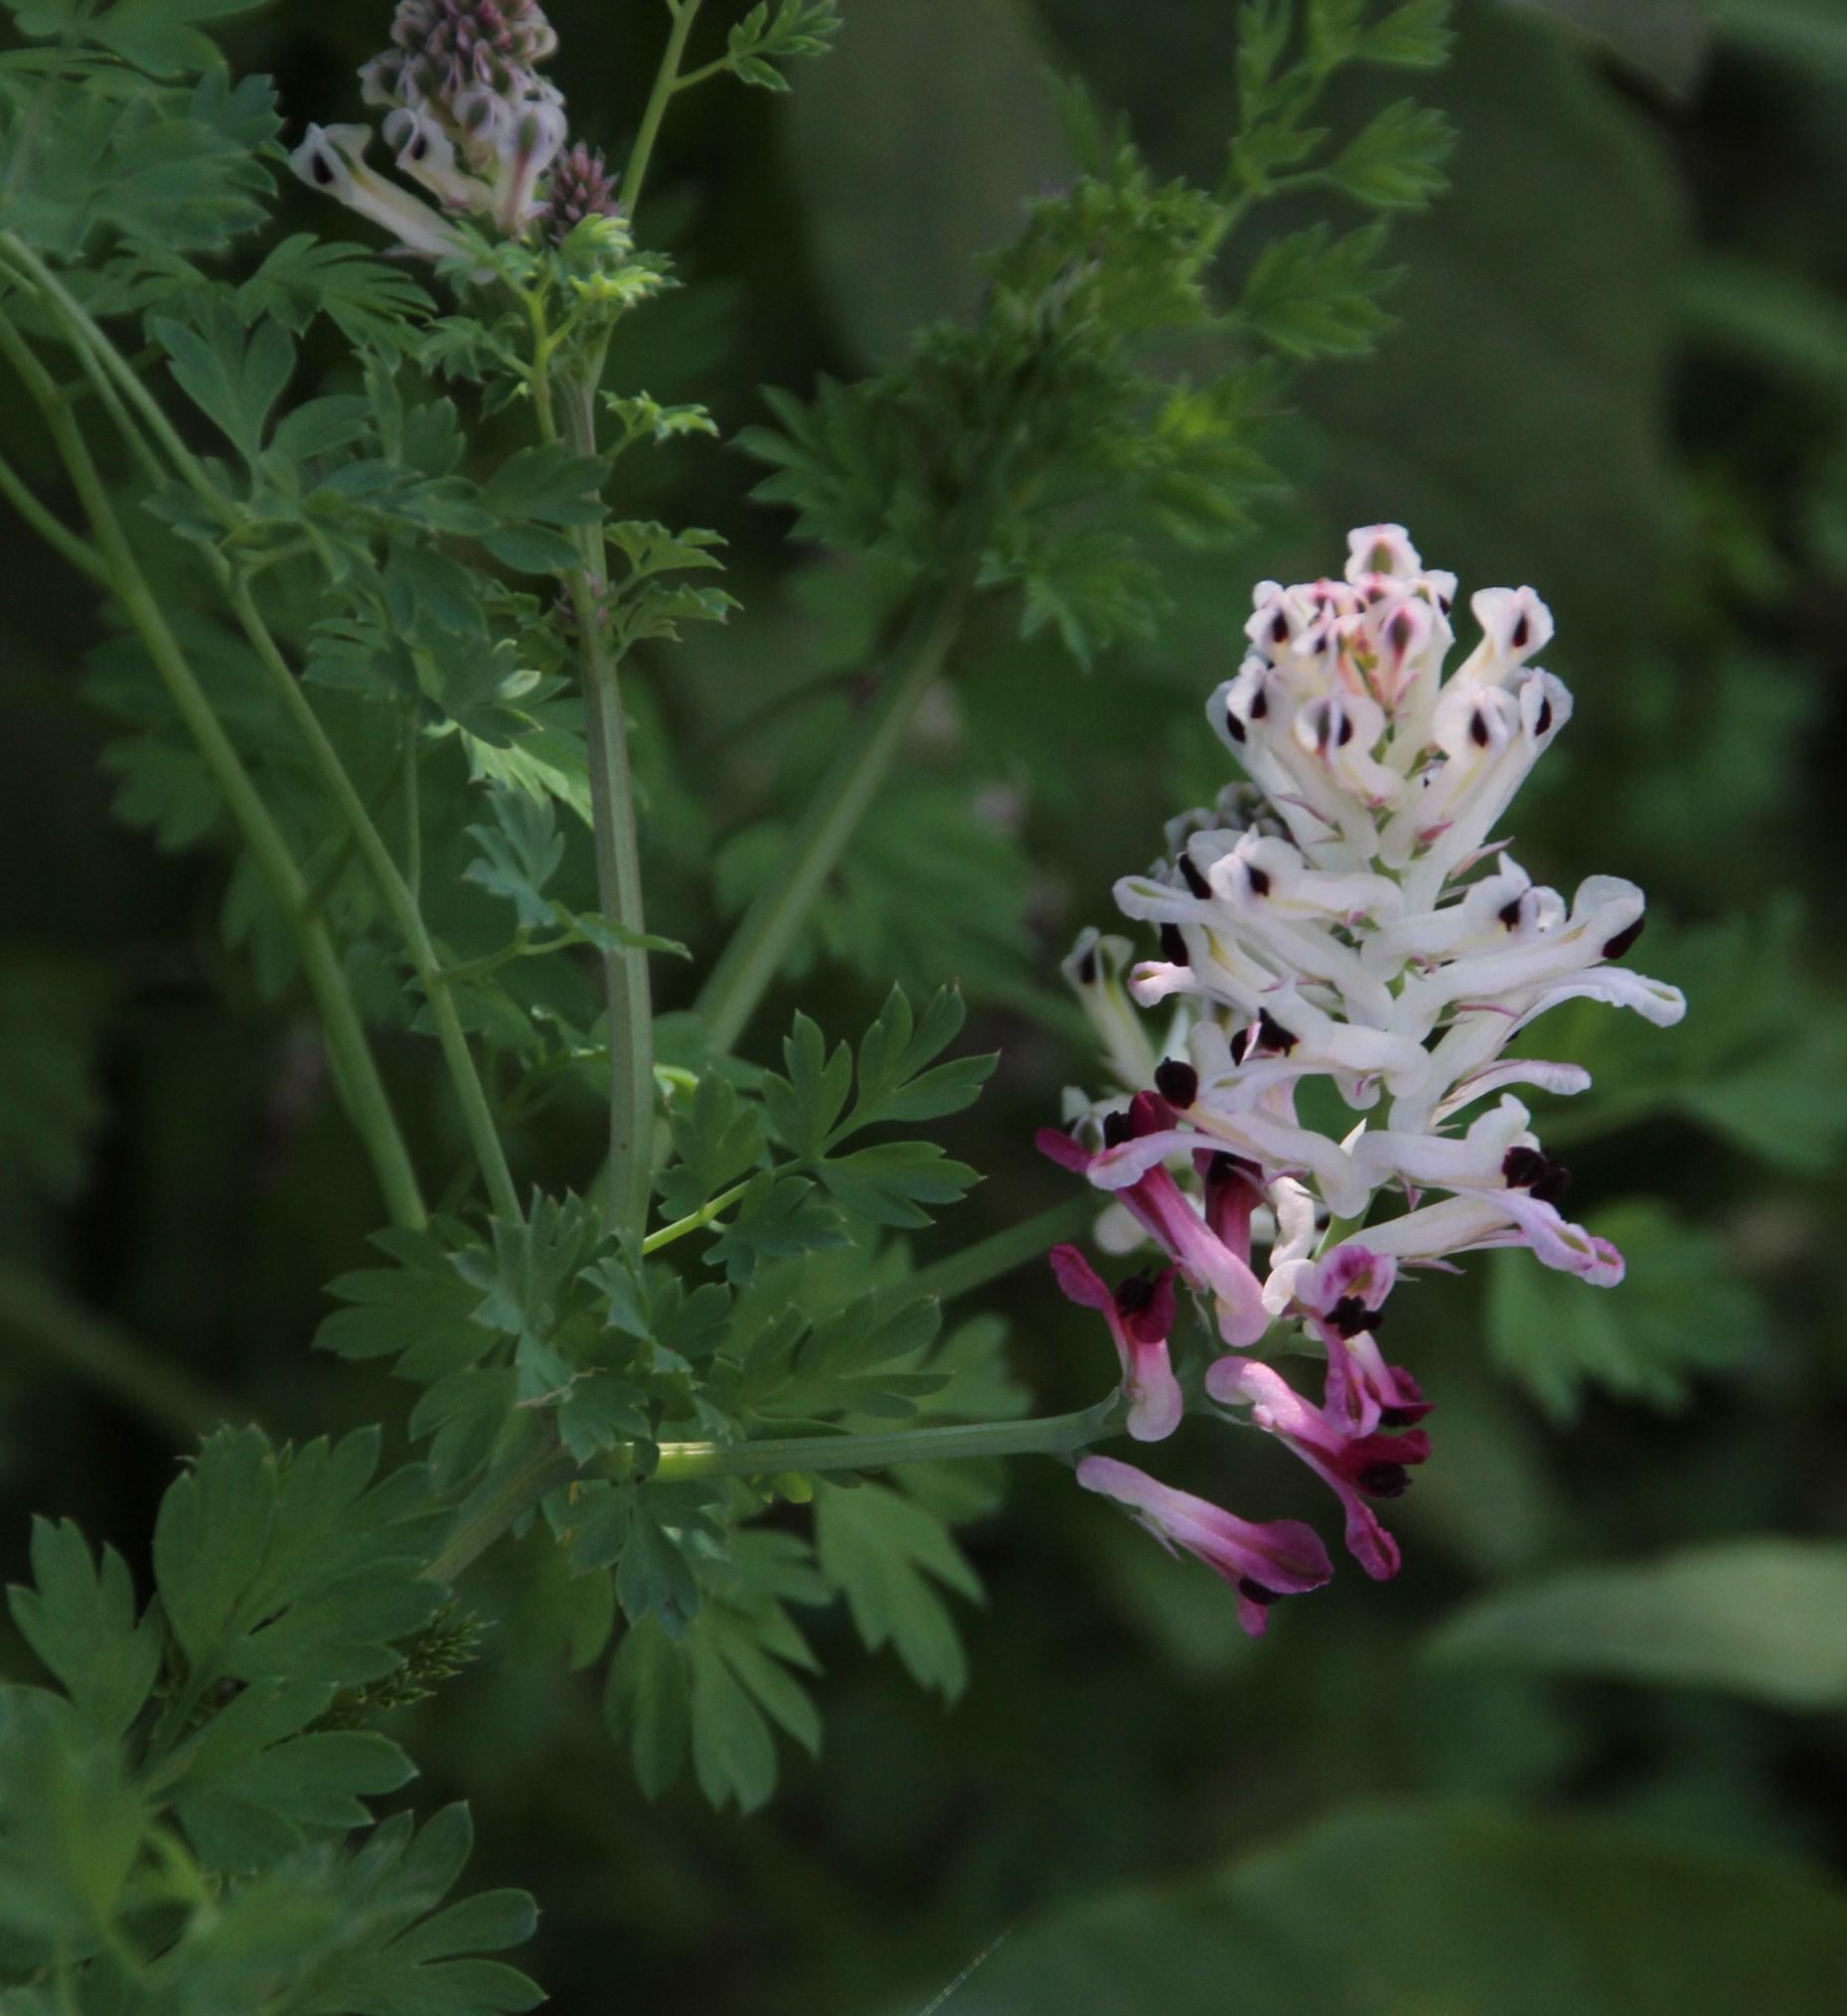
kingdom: Plantae
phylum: Tracheophyta
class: Magnoliopsida
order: Ranunculales
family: Papaveraceae
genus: Fumaria
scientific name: Fumaria capreolata
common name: White ramping-fumitory
